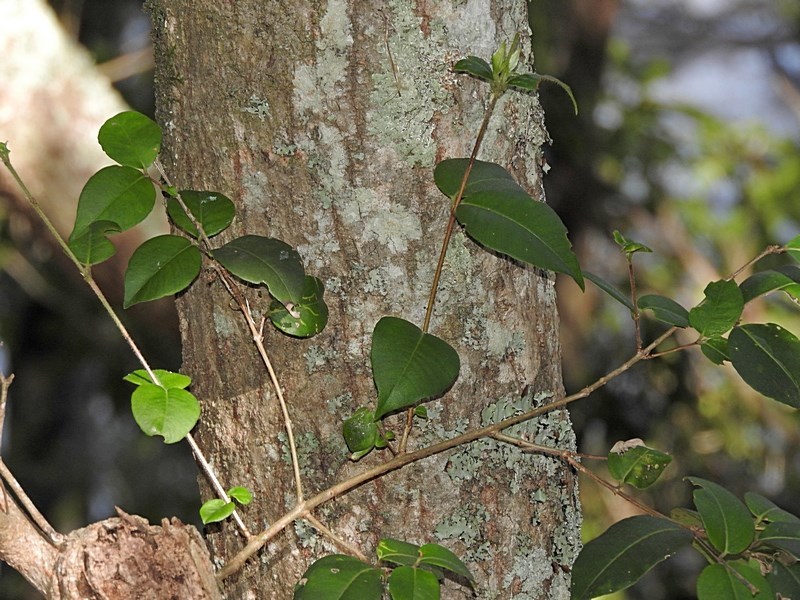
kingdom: Plantae
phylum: Tracheophyta
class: Magnoliopsida
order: Myrtales
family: Myrtaceae
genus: Backhousia
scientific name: Backhousia myrtifolia
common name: Carrol
